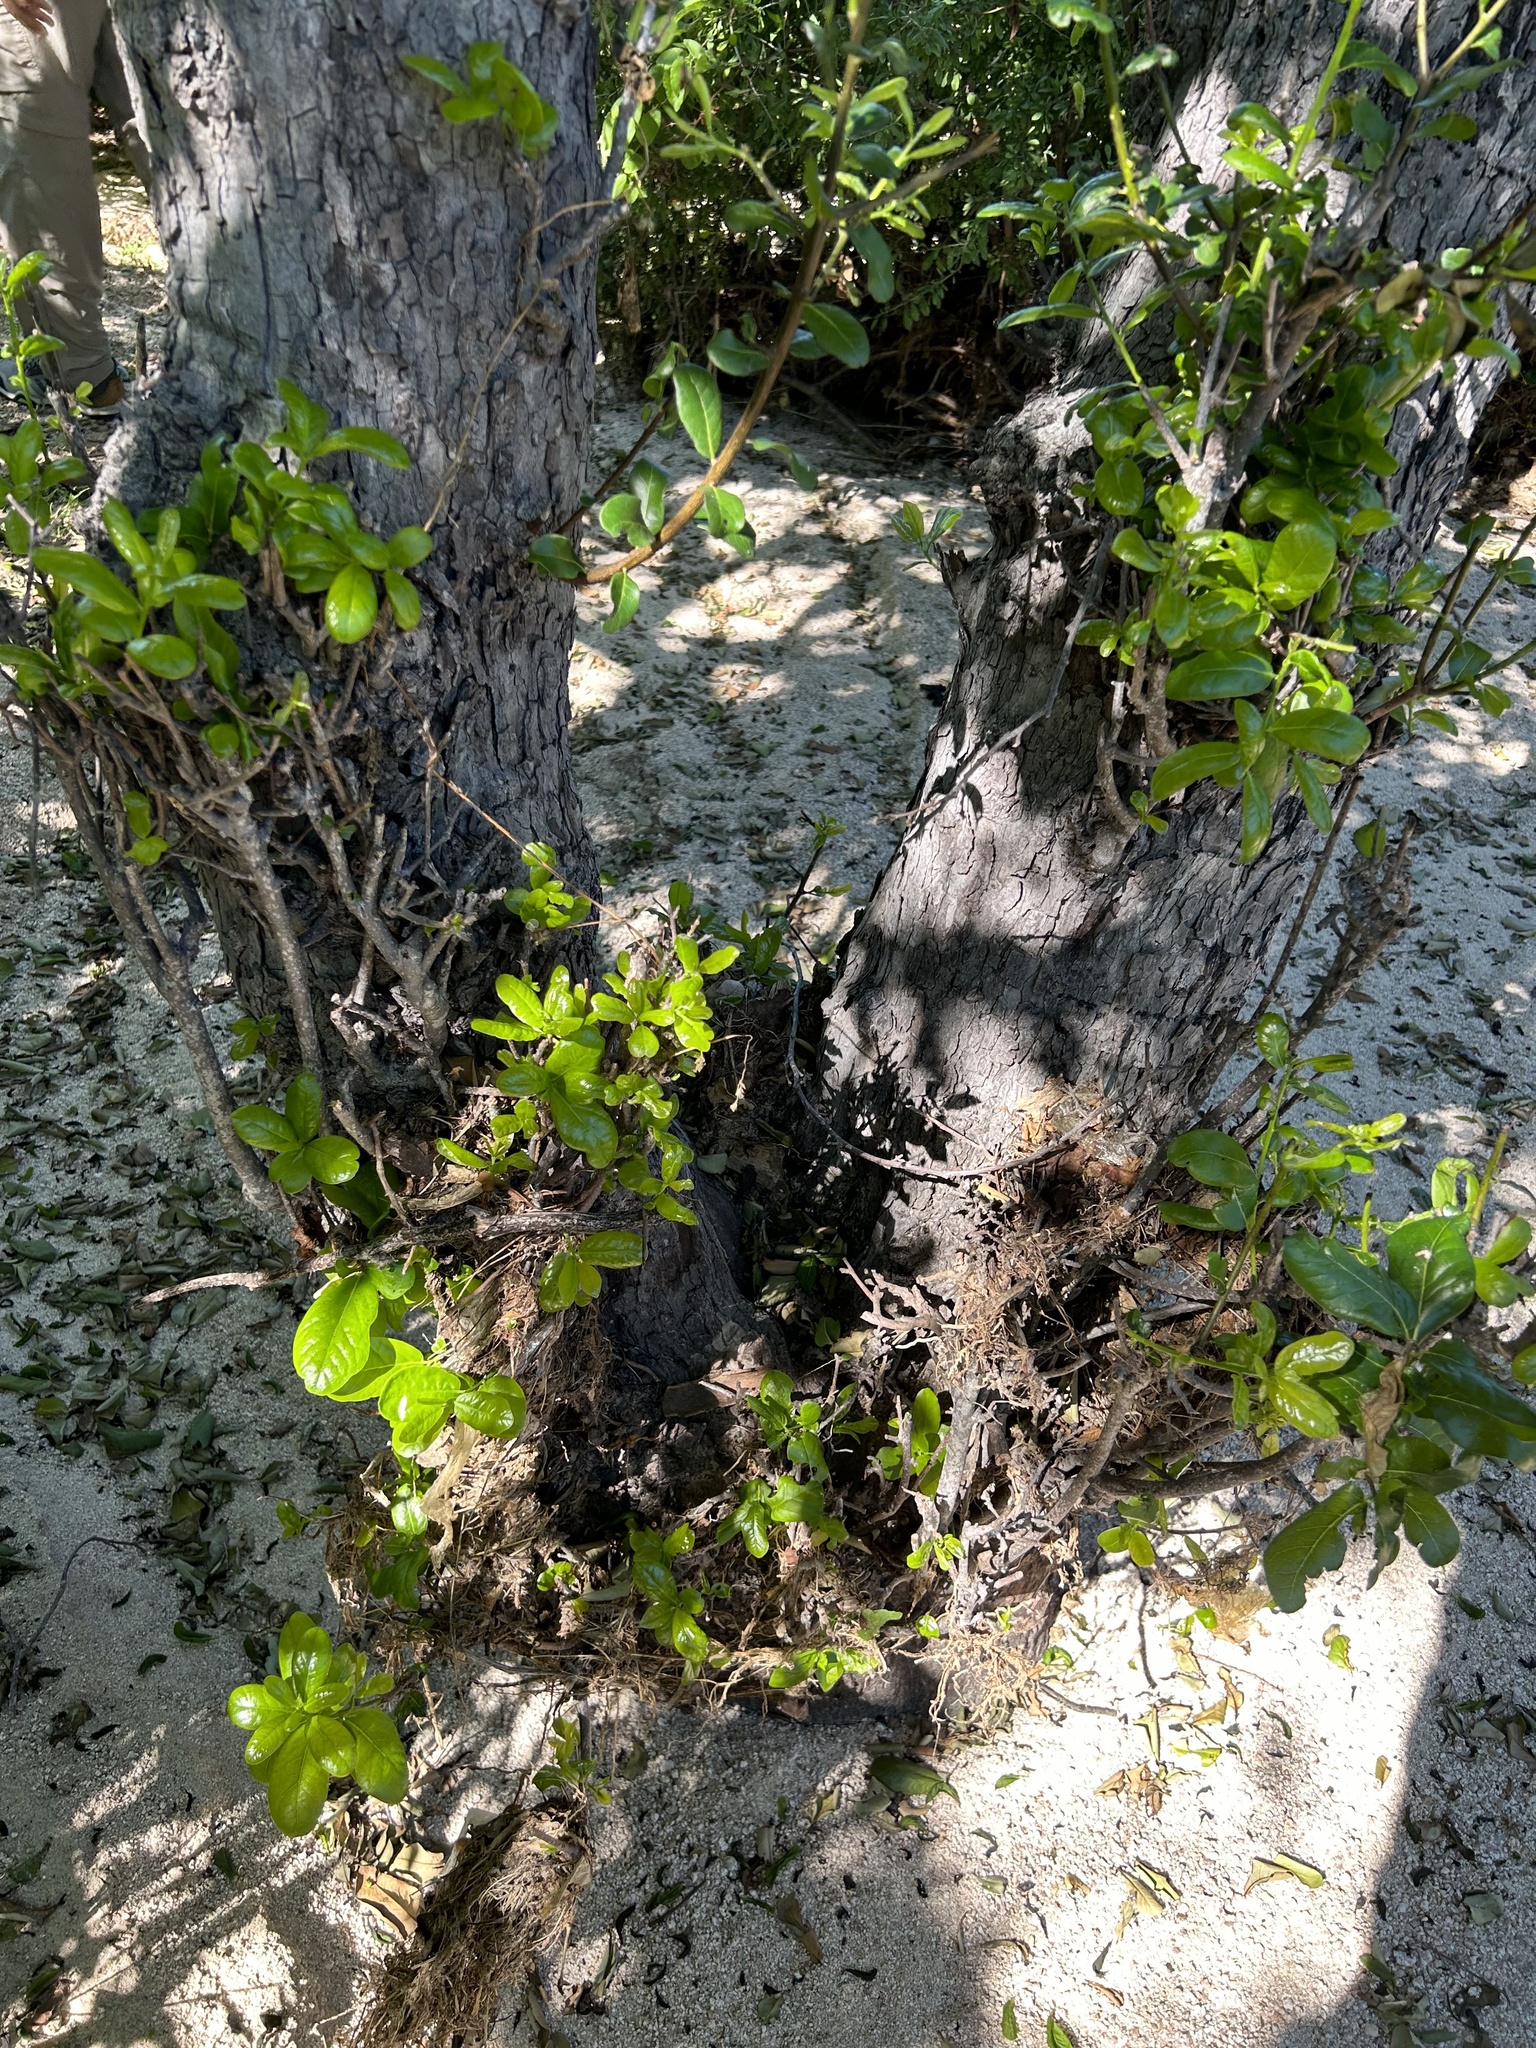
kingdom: Plantae
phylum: Tracheophyta
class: Magnoliopsida
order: Ericales
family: Ebenaceae
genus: Diospyros
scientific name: Diospyros californica
